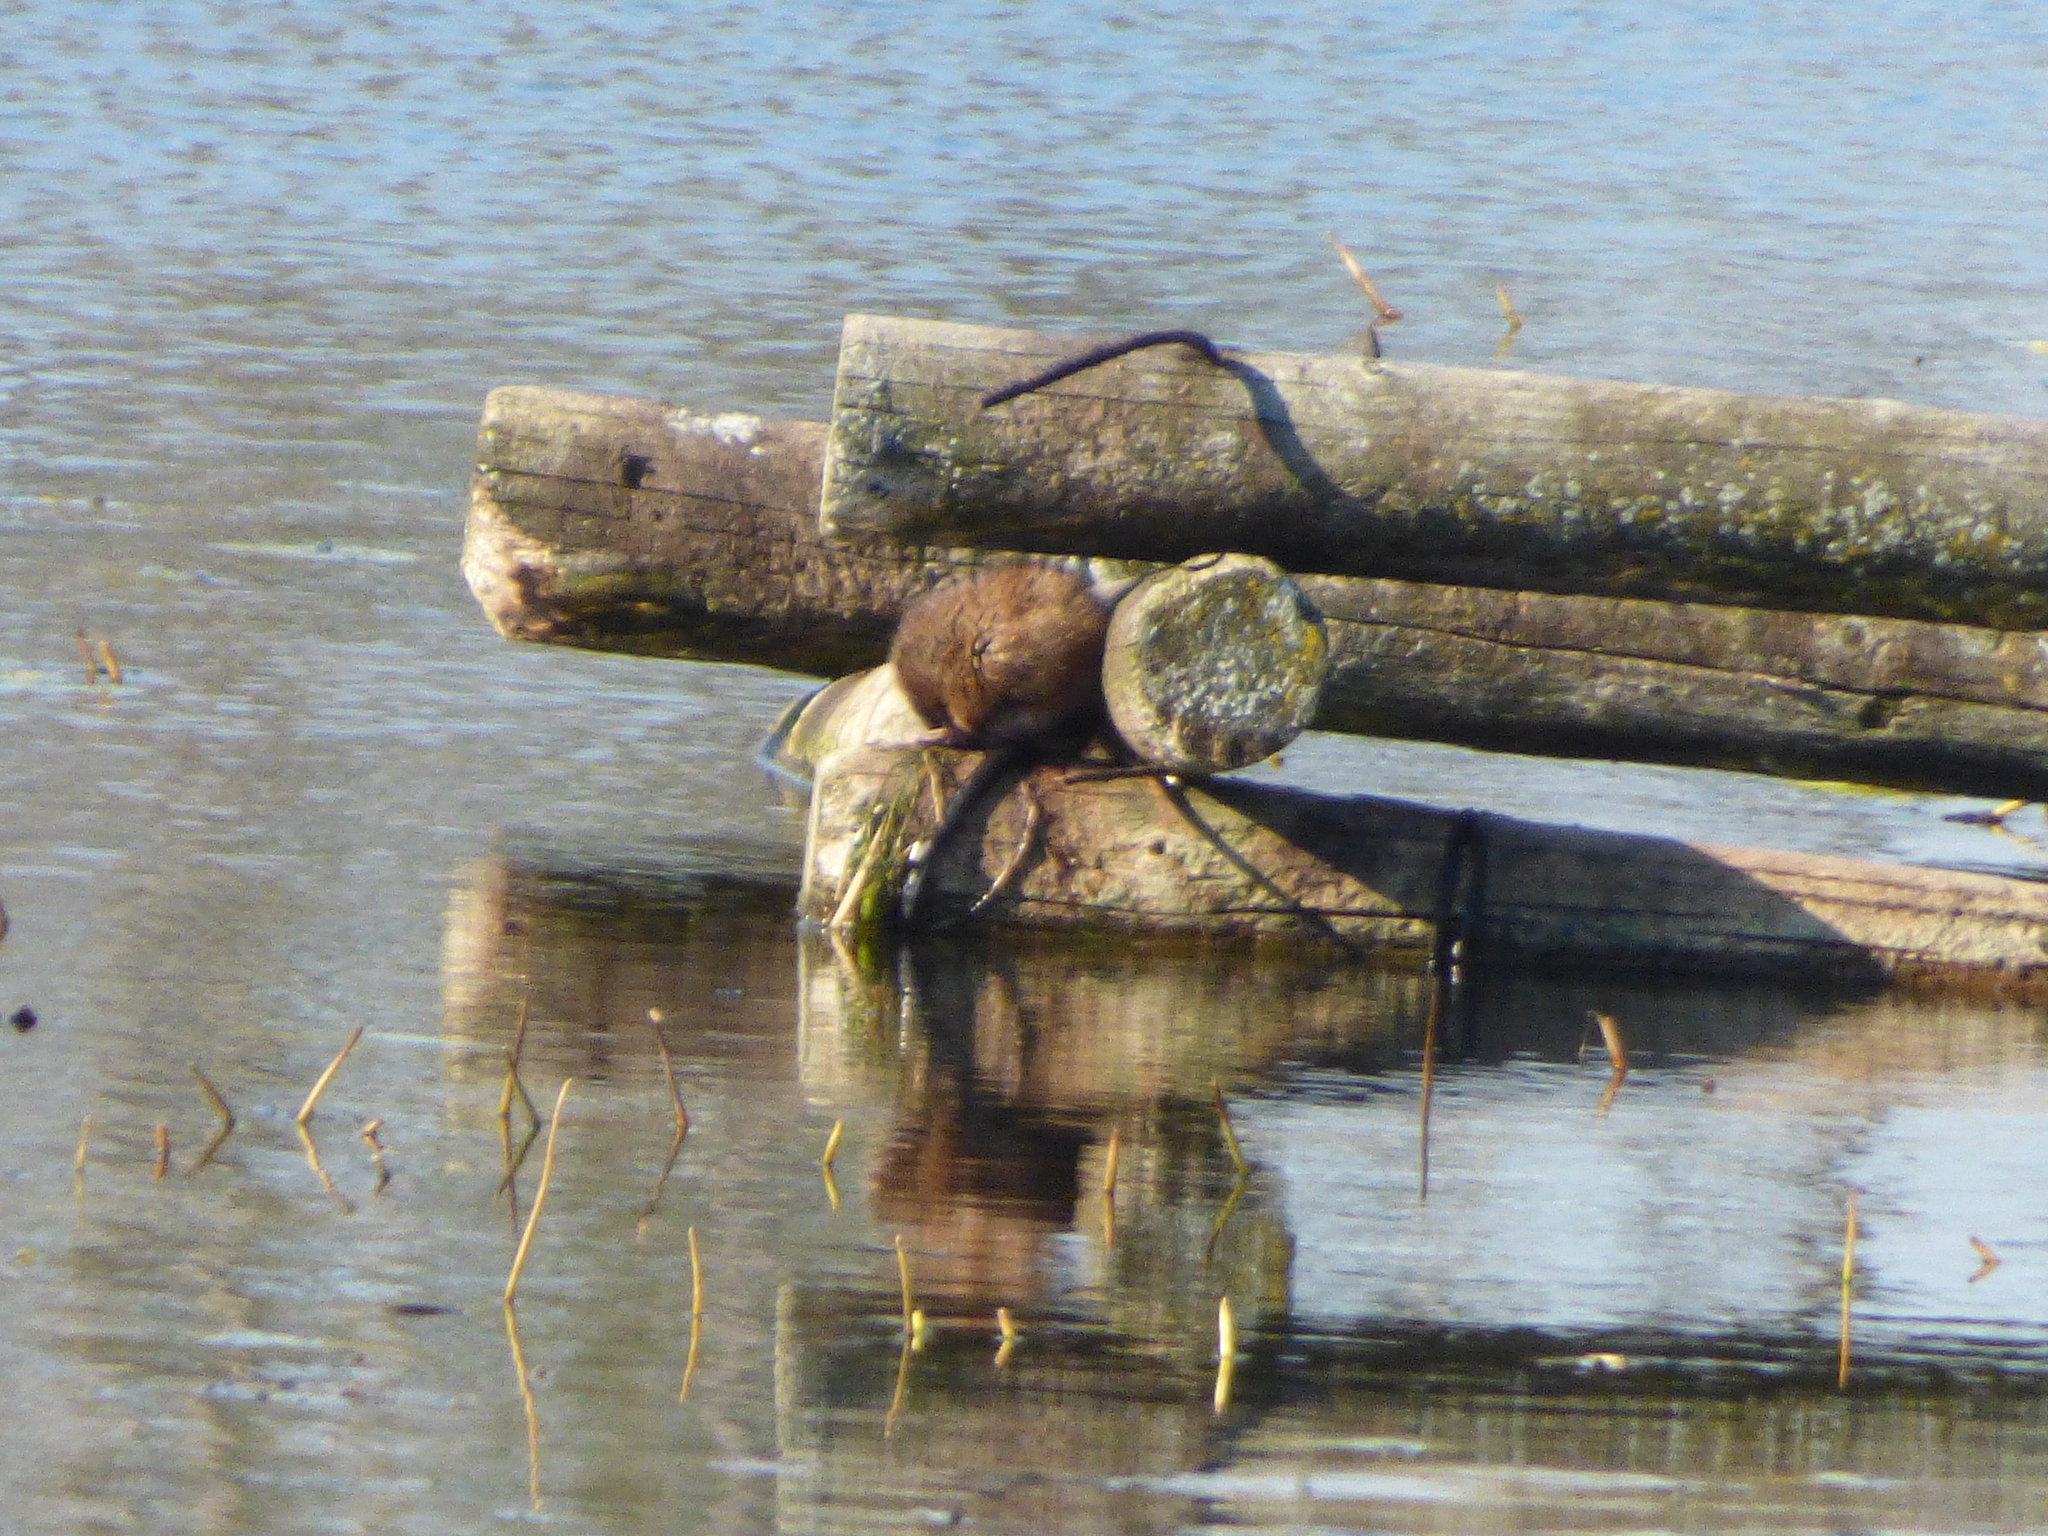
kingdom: Animalia
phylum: Chordata
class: Mammalia
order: Rodentia
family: Cricetidae
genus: Ondatra
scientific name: Ondatra zibethicus
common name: Muskrat
